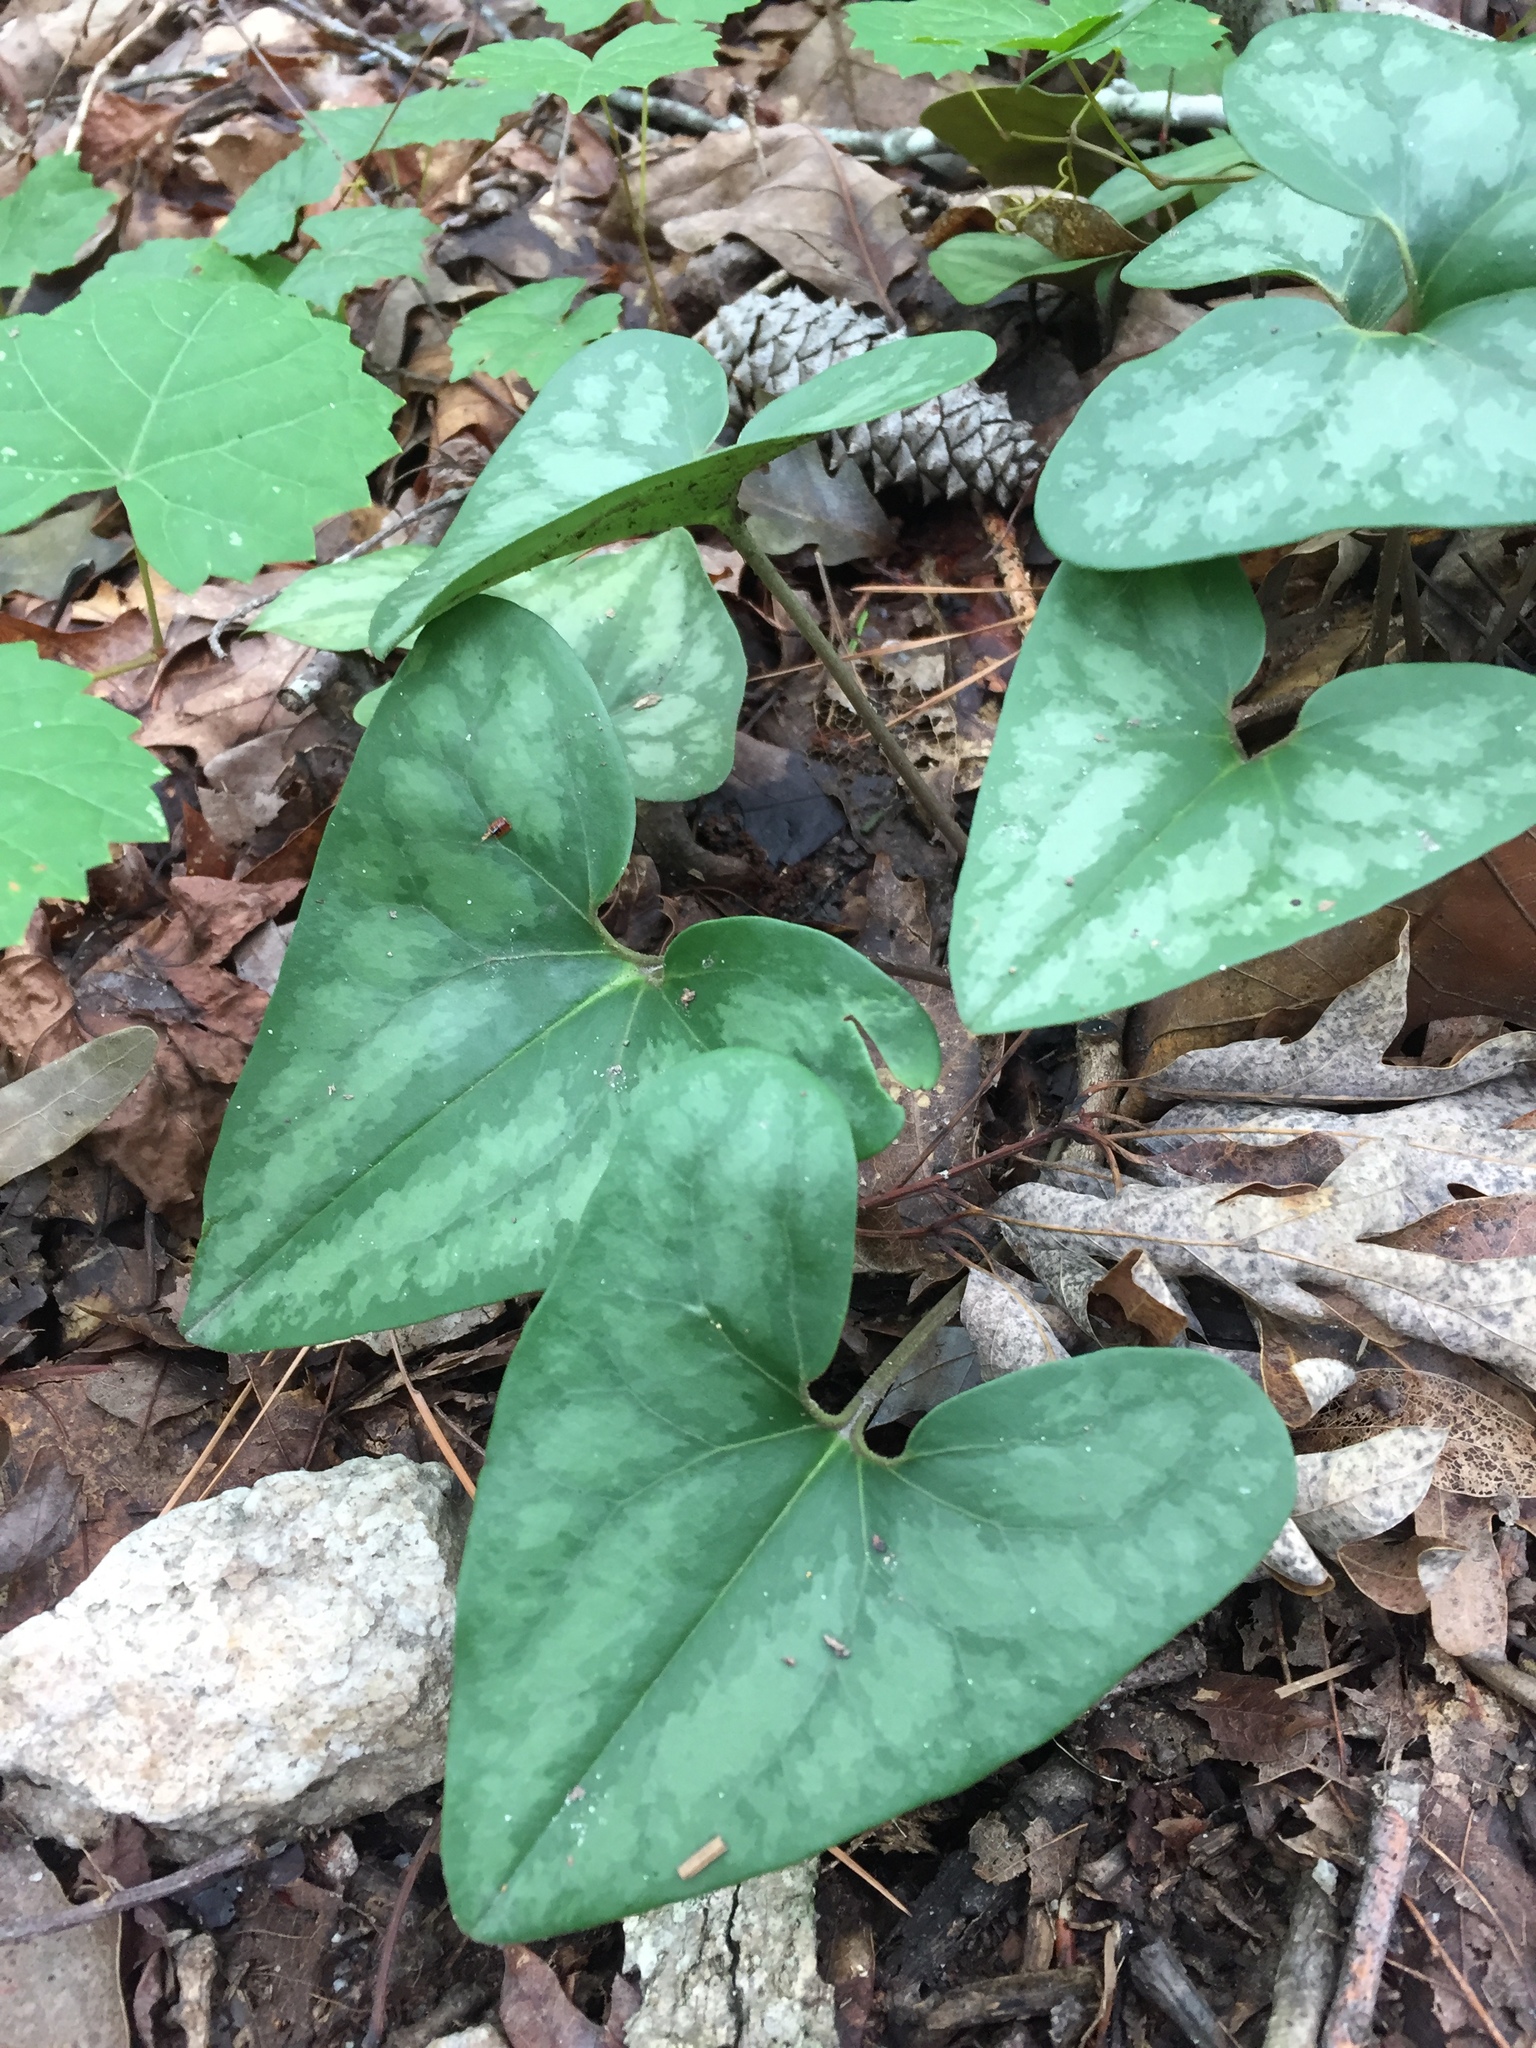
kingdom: Plantae
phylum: Tracheophyta
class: Magnoliopsida
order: Piperales
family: Aristolochiaceae
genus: Hexastylis
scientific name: Hexastylis arifolia
